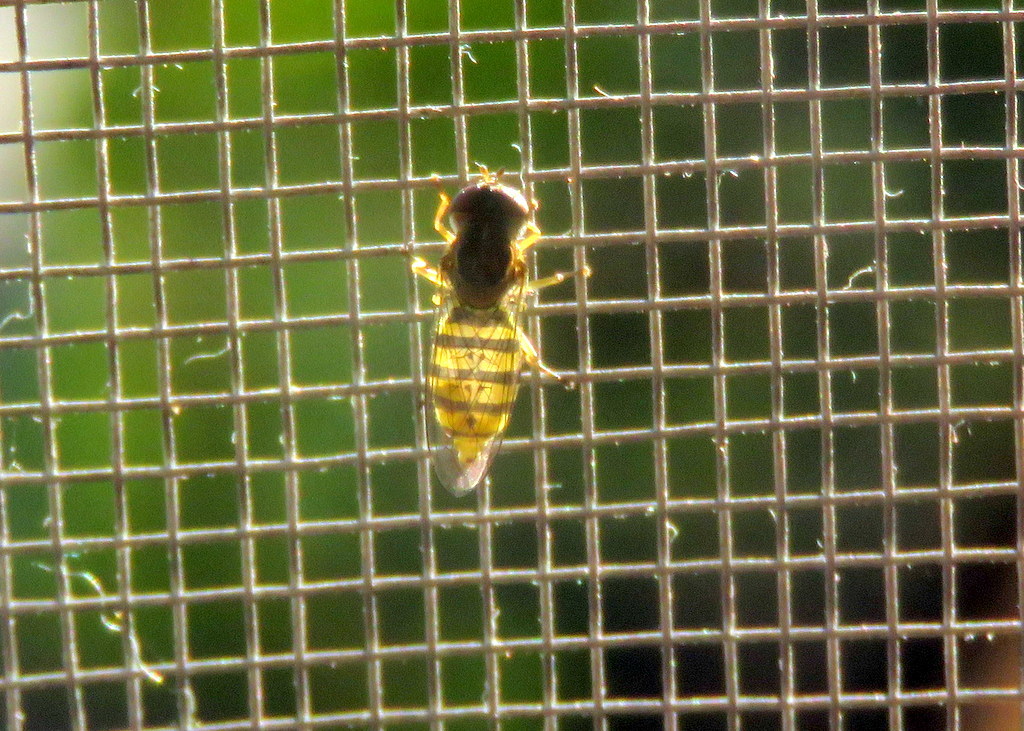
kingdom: Animalia
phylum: Arthropoda
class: Insecta
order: Diptera
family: Syrphidae
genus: Toxomerus
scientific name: Toxomerus
